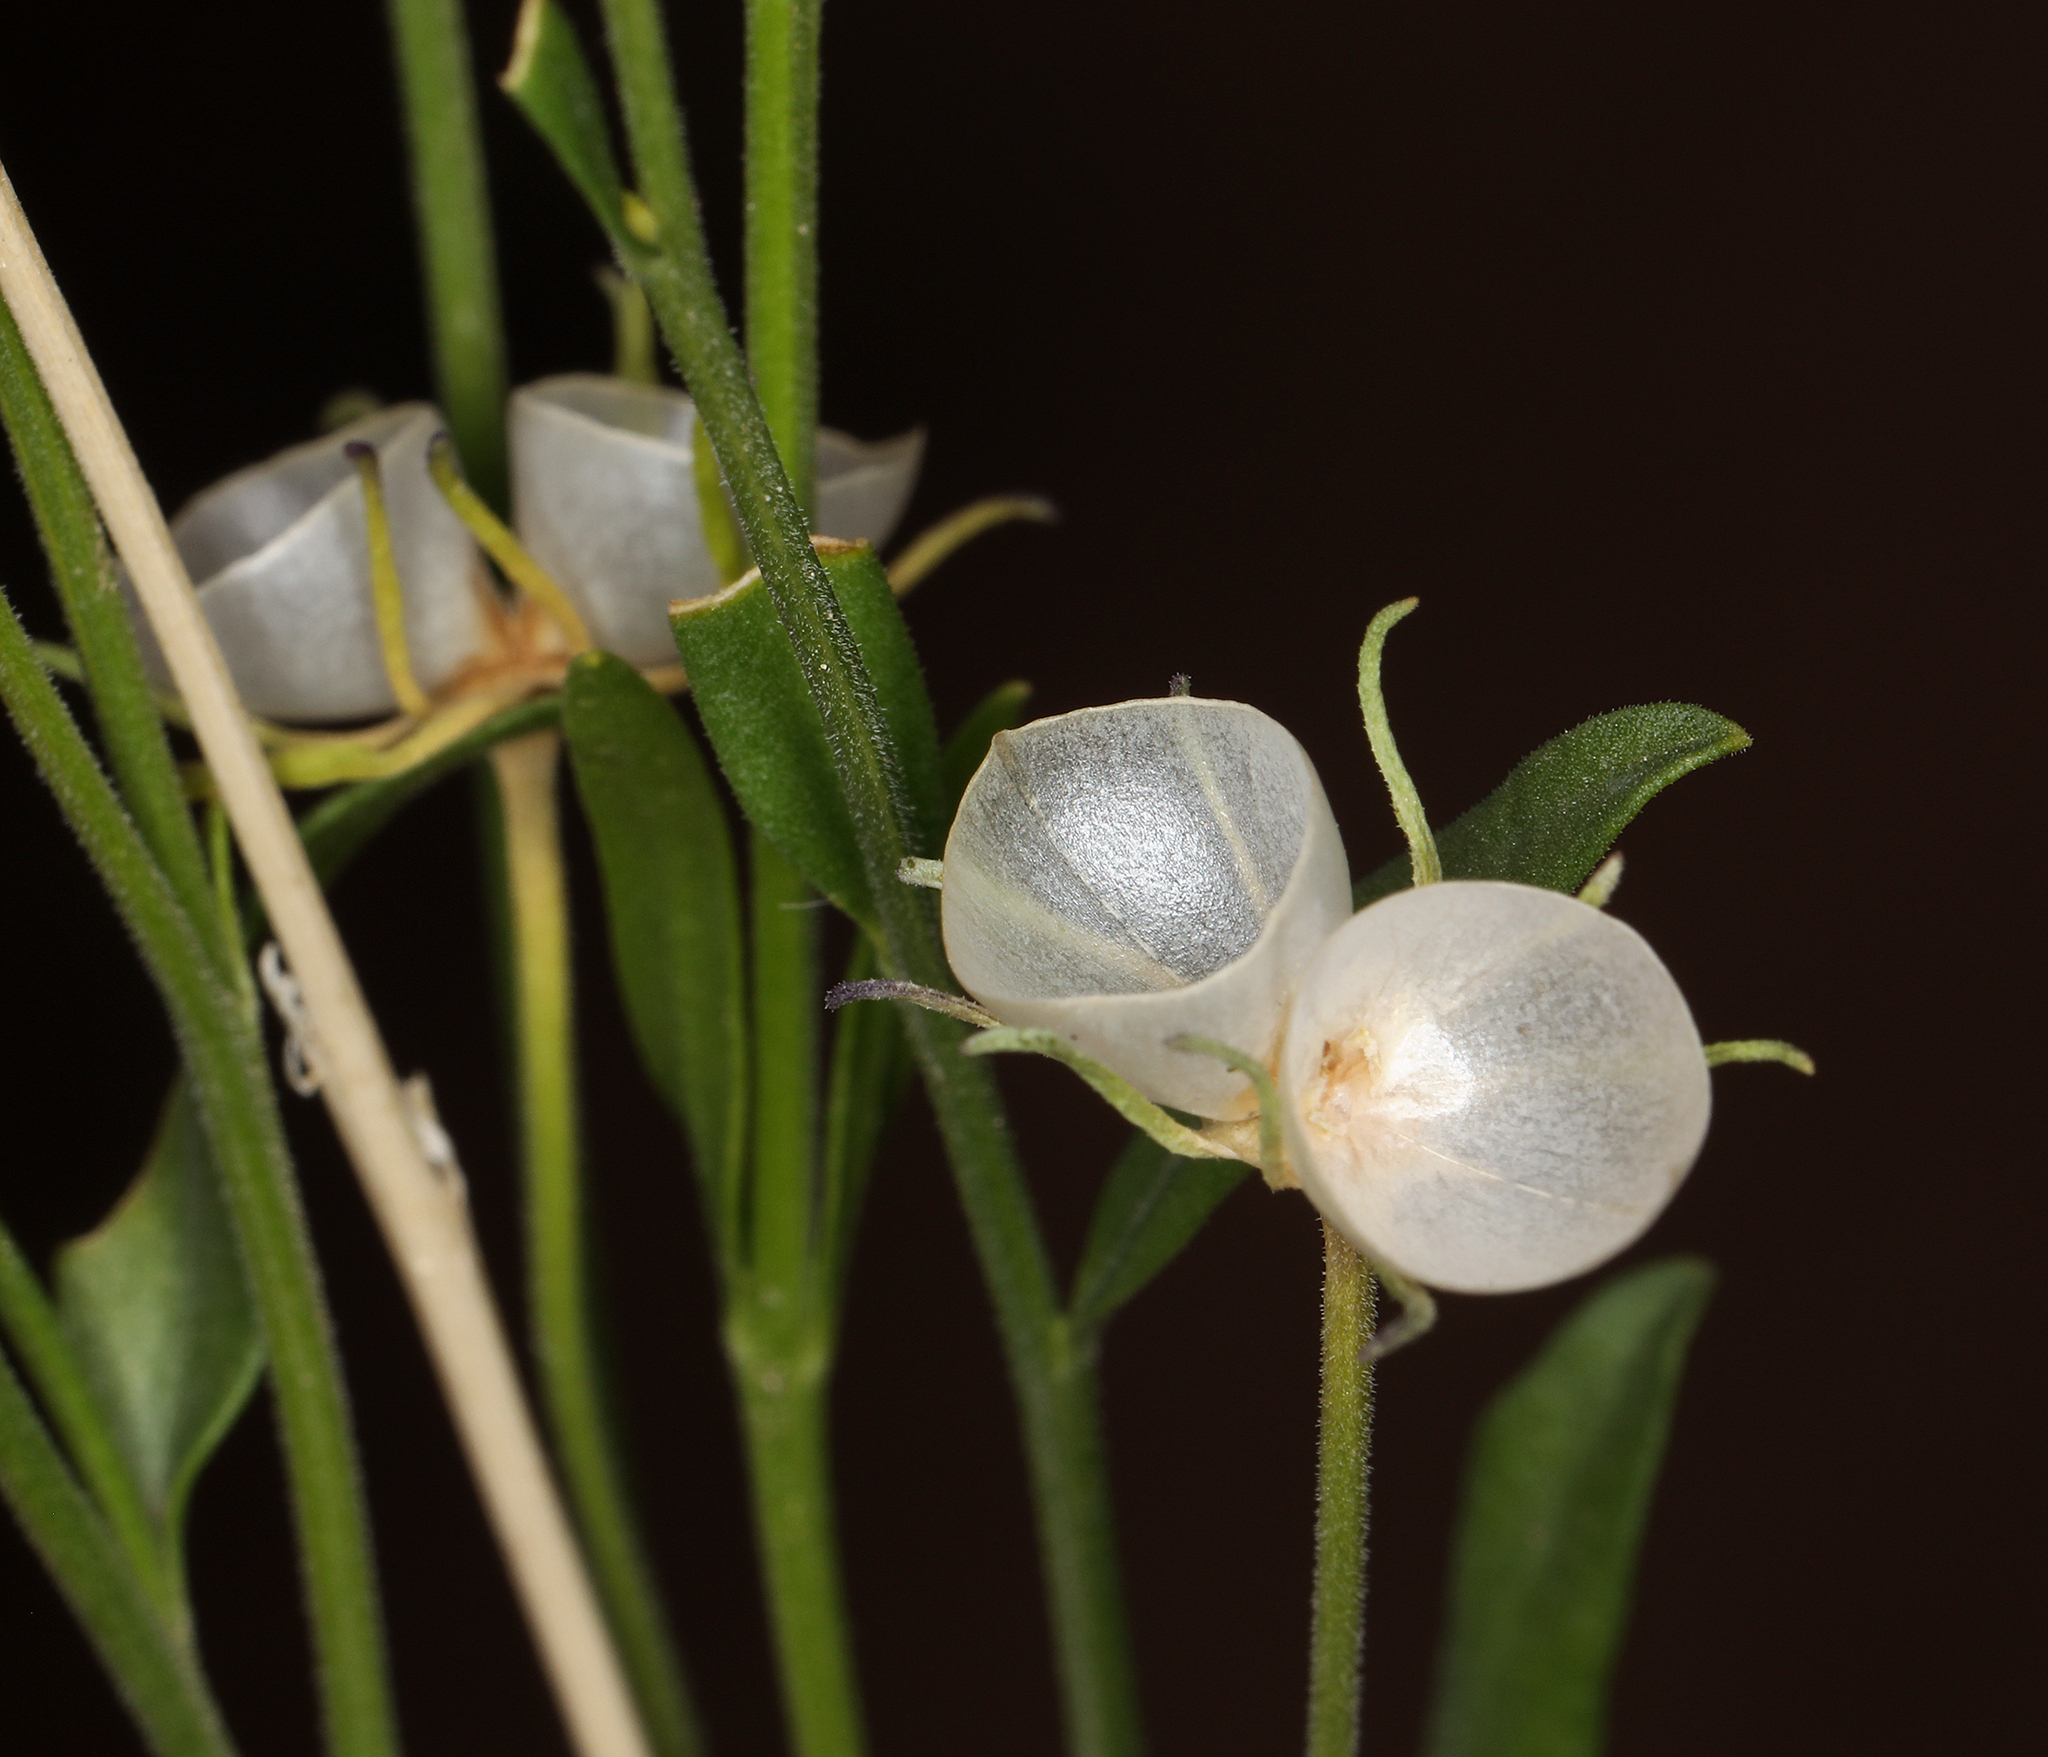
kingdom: Plantae
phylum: Tracheophyta
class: Magnoliopsida
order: Lamiales
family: Oleaceae
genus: Menodora
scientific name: Menodora scabra
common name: Rough menodora
